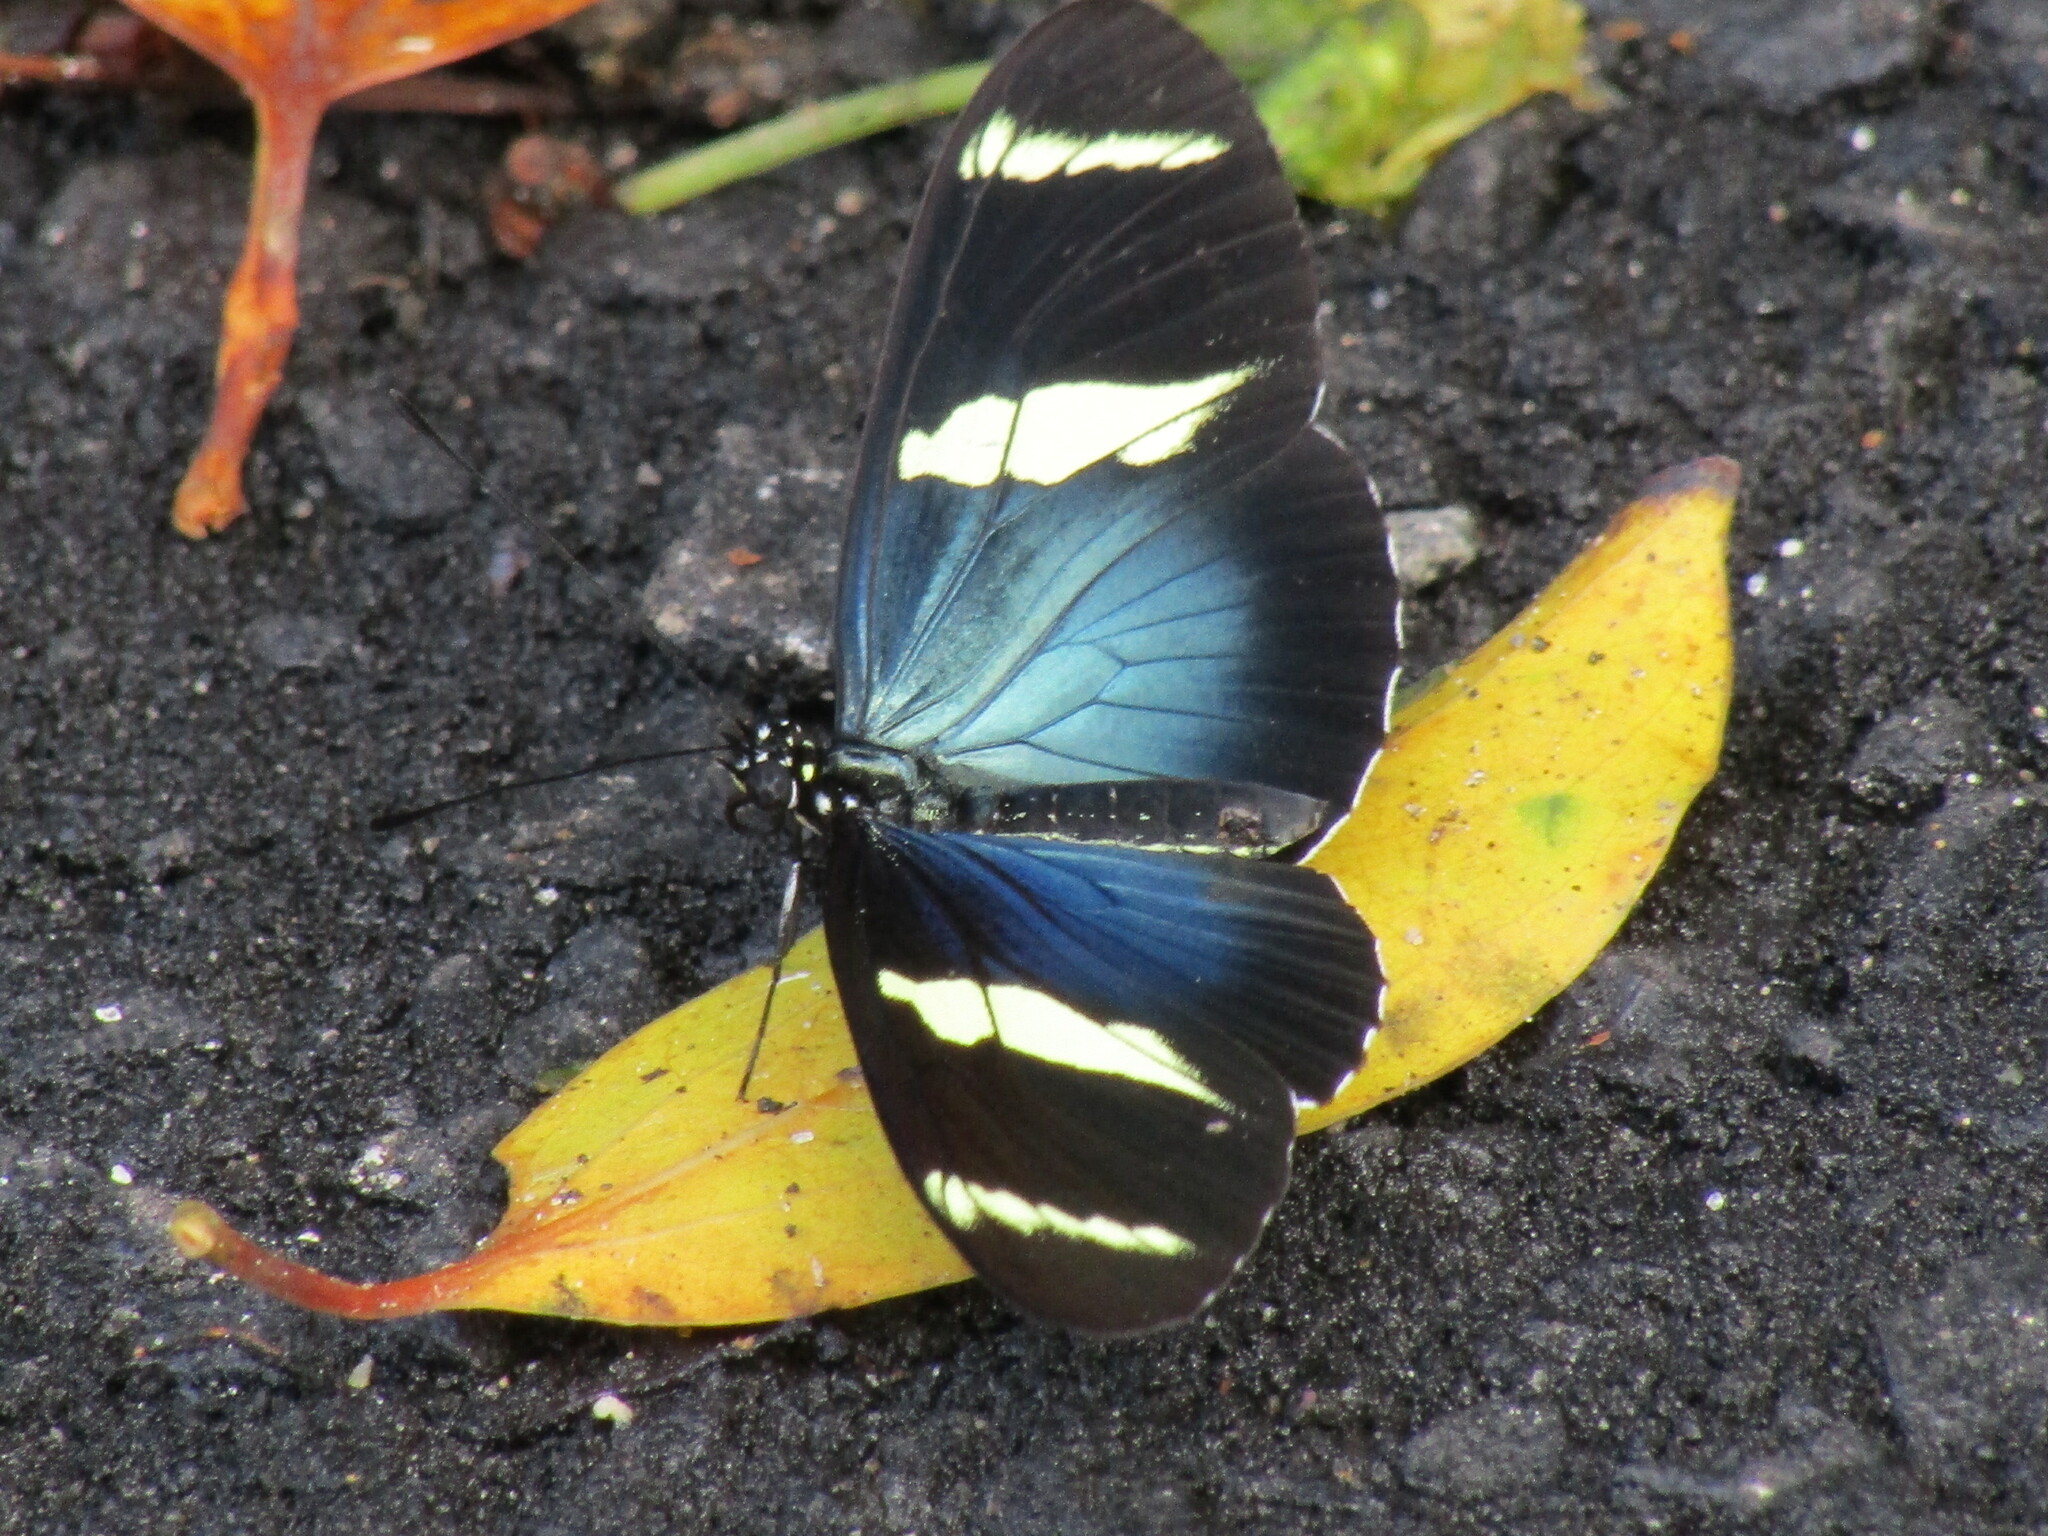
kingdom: Animalia
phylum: Arthropoda
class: Insecta
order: Lepidoptera
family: Nymphalidae
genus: Heliconius
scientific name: Heliconius sara
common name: Sara longwing
